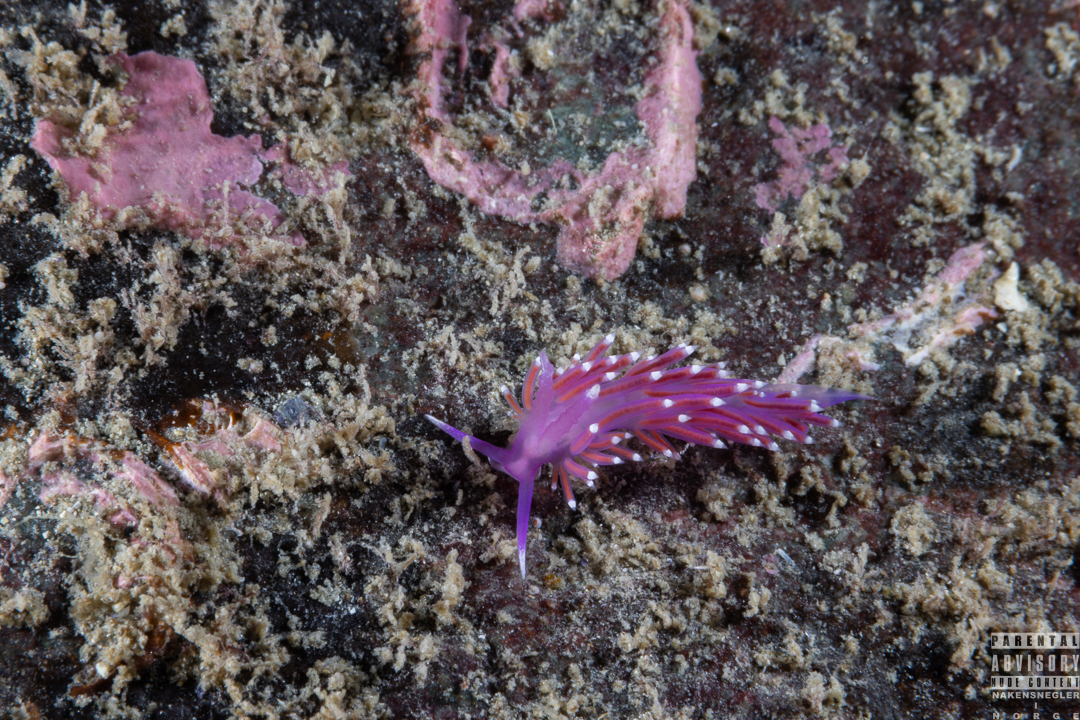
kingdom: Animalia
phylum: Mollusca
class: Gastropoda
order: Nudibranchia
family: Flabellinidae
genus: Edmundsella
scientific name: Edmundsella pedata
